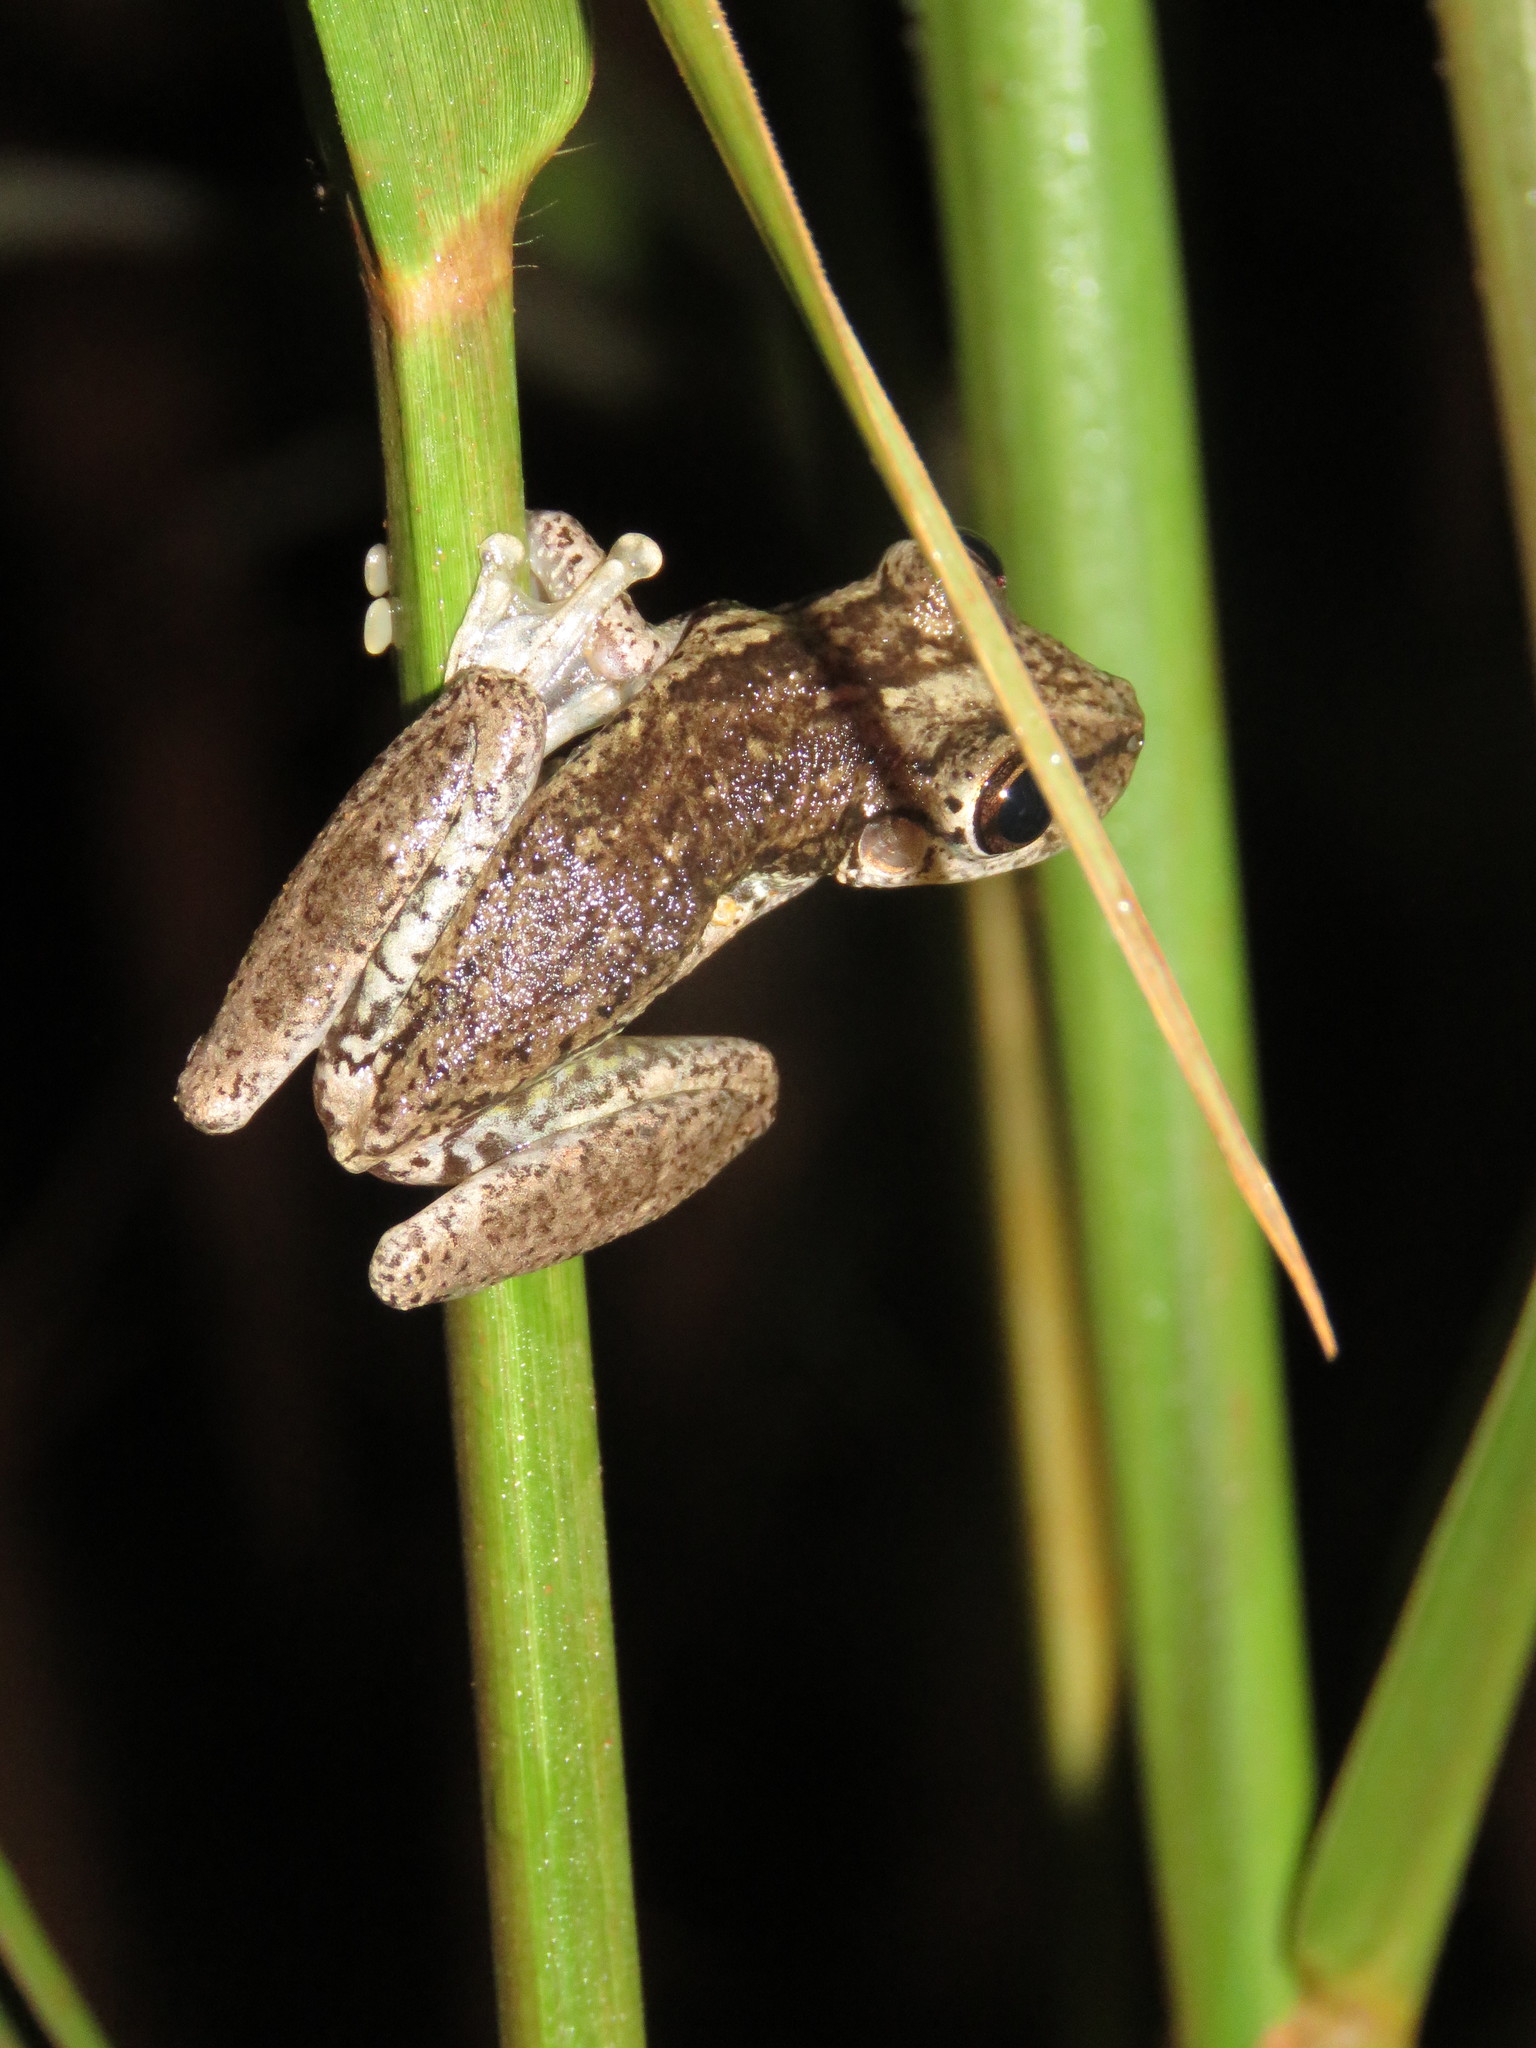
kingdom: Animalia
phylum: Chordata
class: Amphibia
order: Anura
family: Hylidae
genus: Scinax
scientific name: Scinax ruber
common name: Red snouted treefrog
